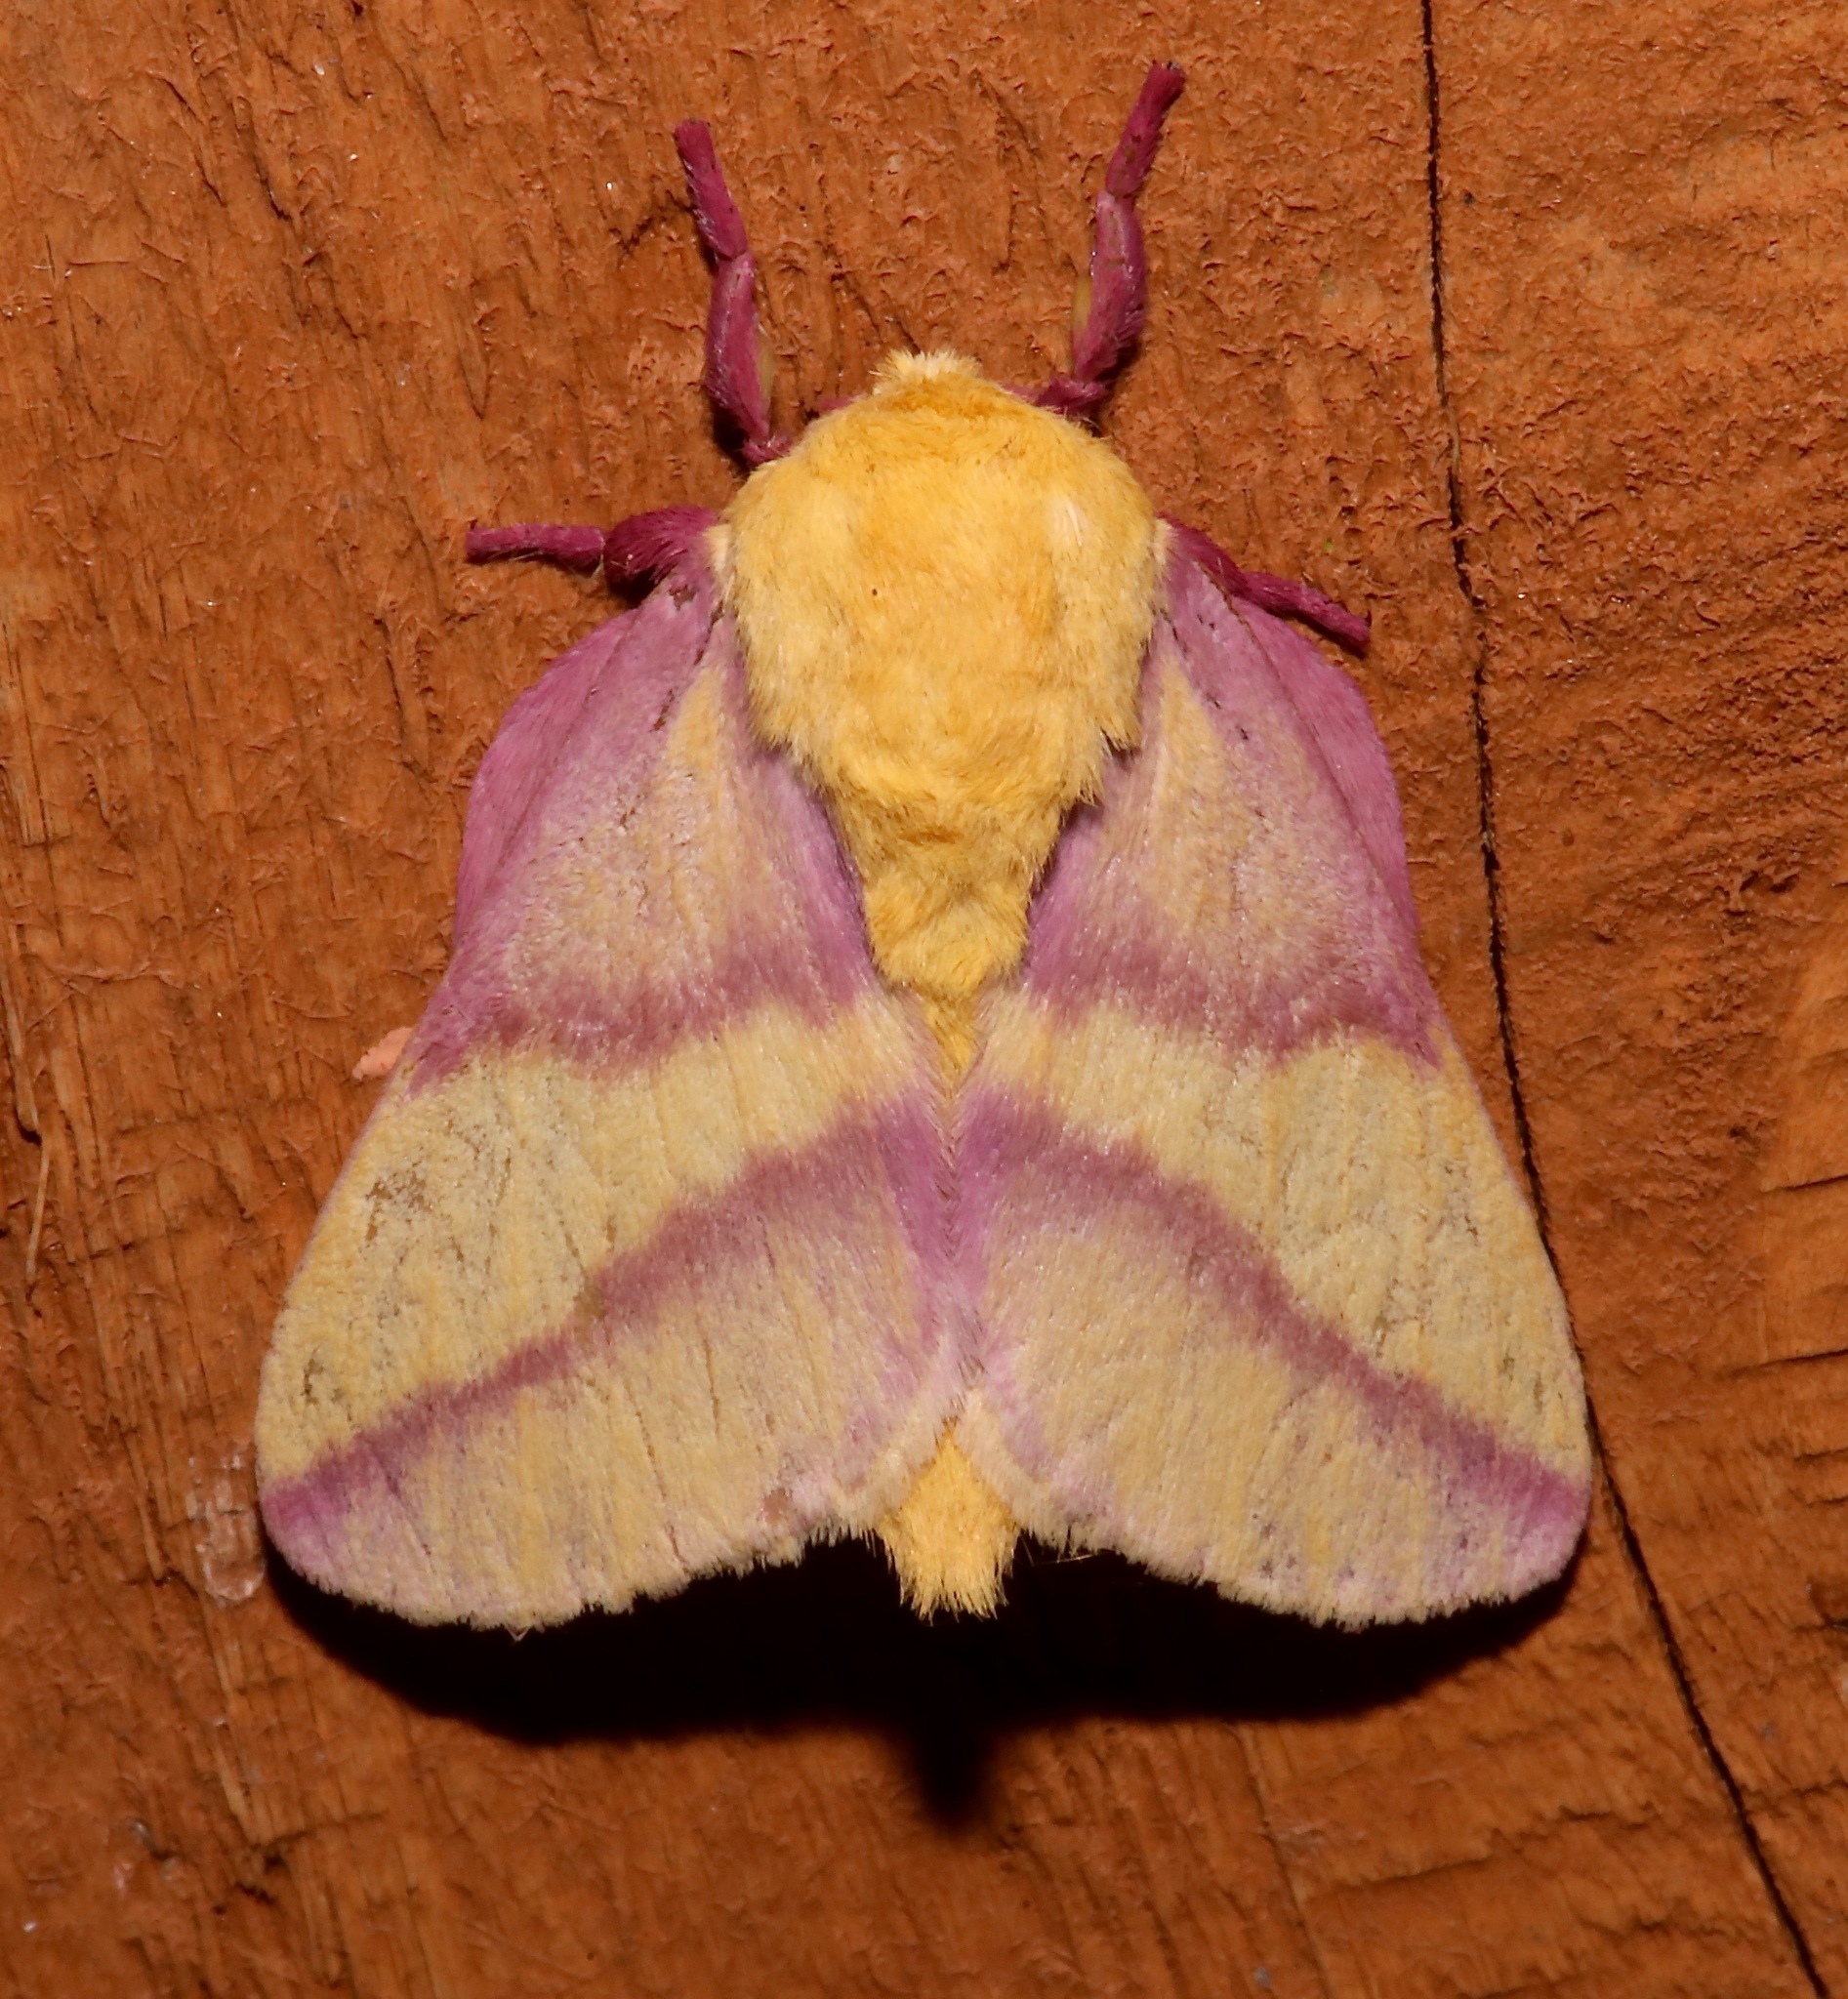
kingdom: Animalia
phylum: Arthropoda
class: Insecta
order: Lepidoptera
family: Saturniidae
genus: Dryocampa
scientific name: Dryocampa rubicunda
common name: Rosy maple moth
